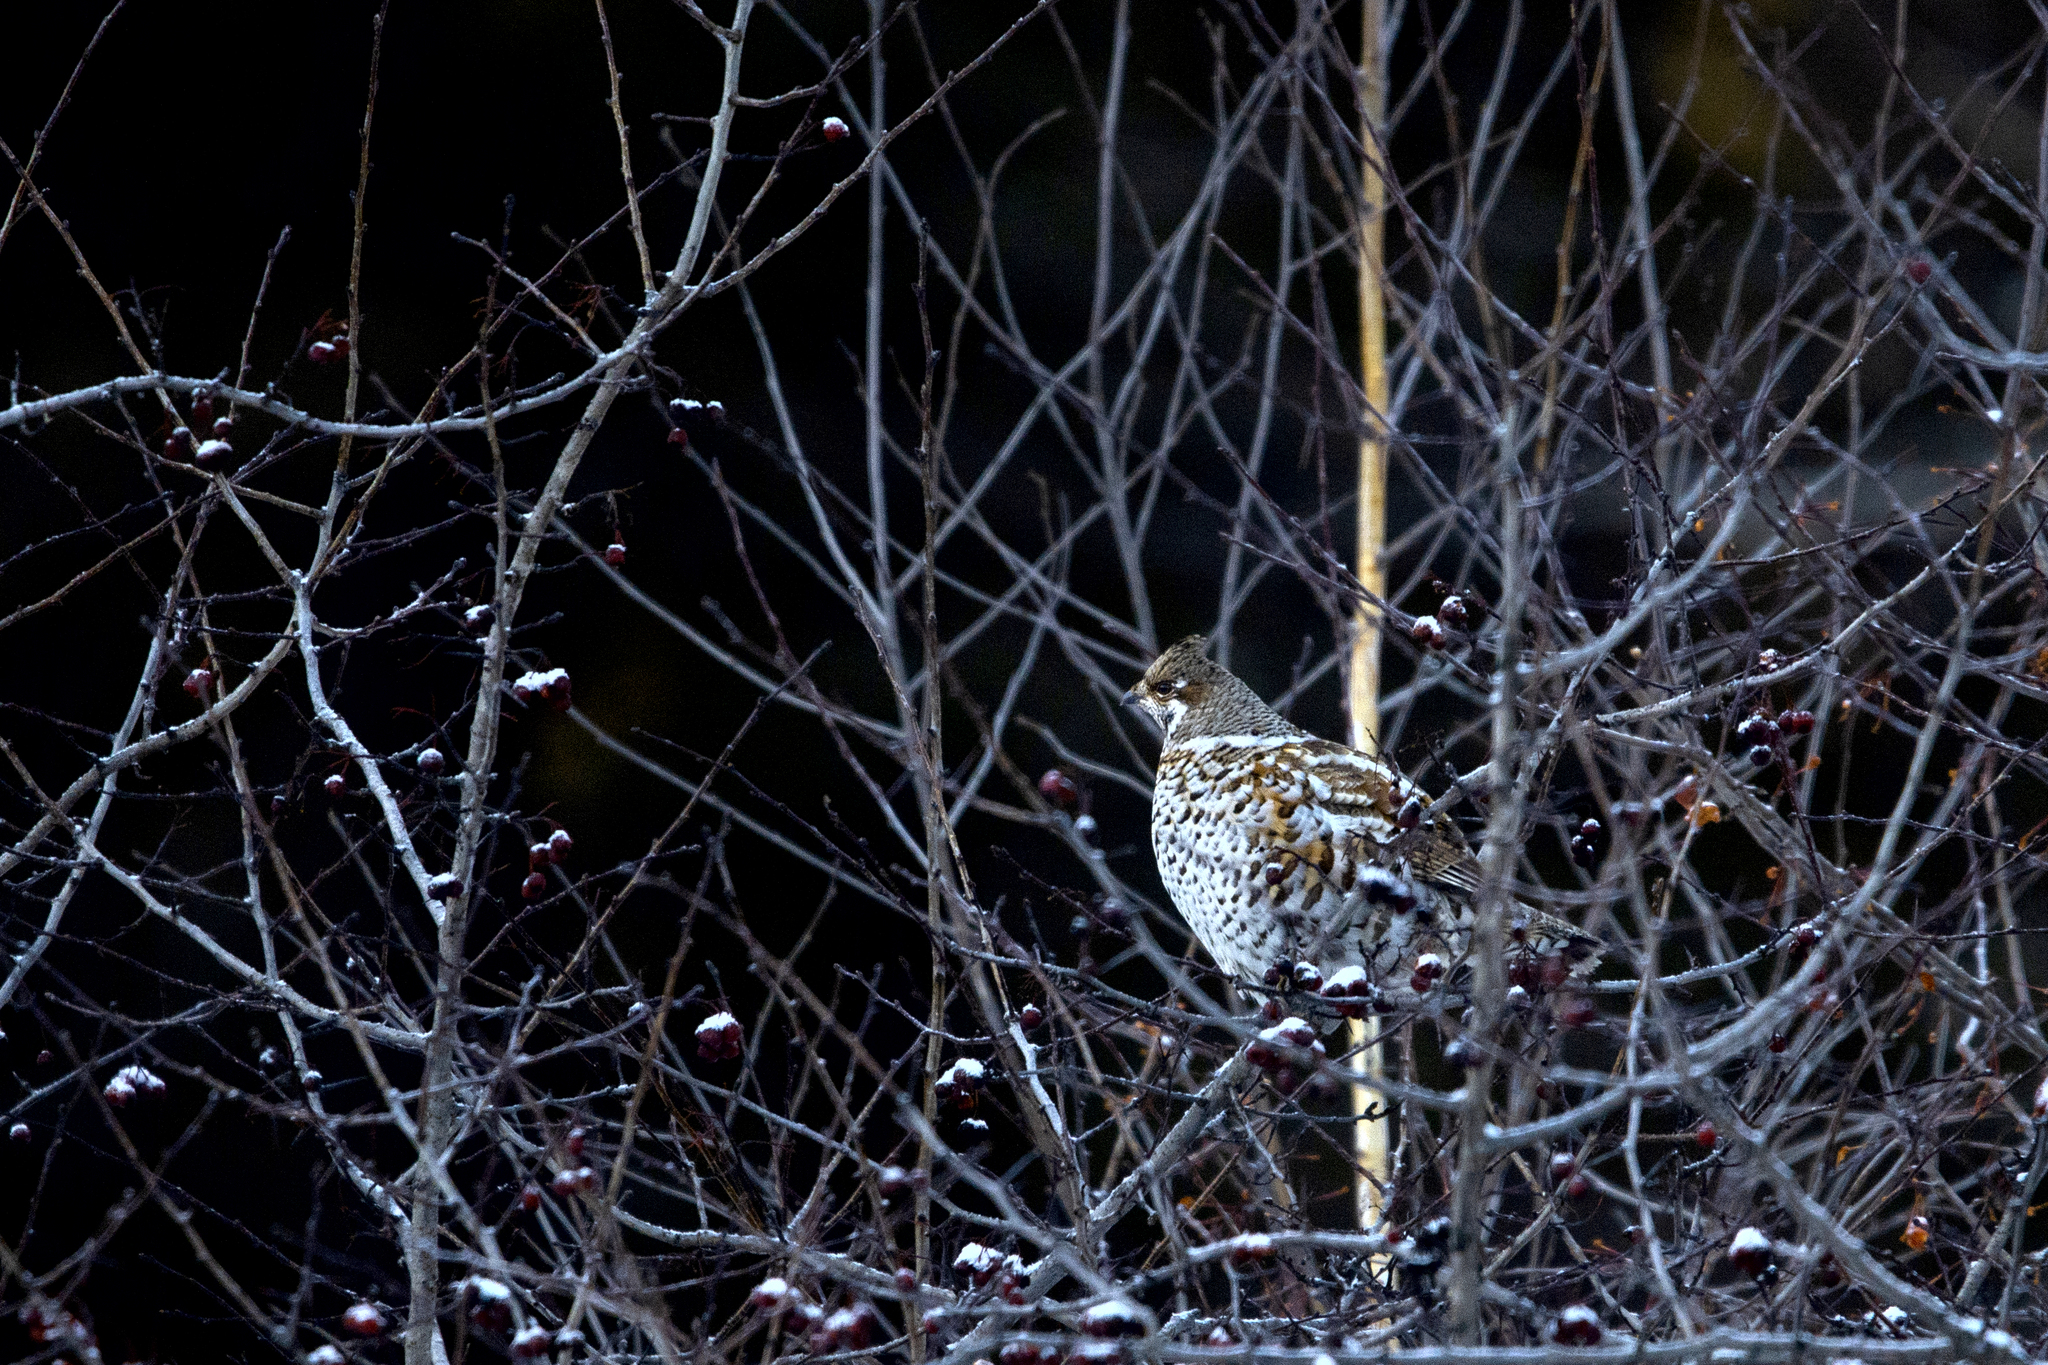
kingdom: Animalia
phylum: Chordata
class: Aves
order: Galliformes
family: Phasianidae
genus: Tetrastes
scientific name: Tetrastes bonasia
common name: Hazel grouse
